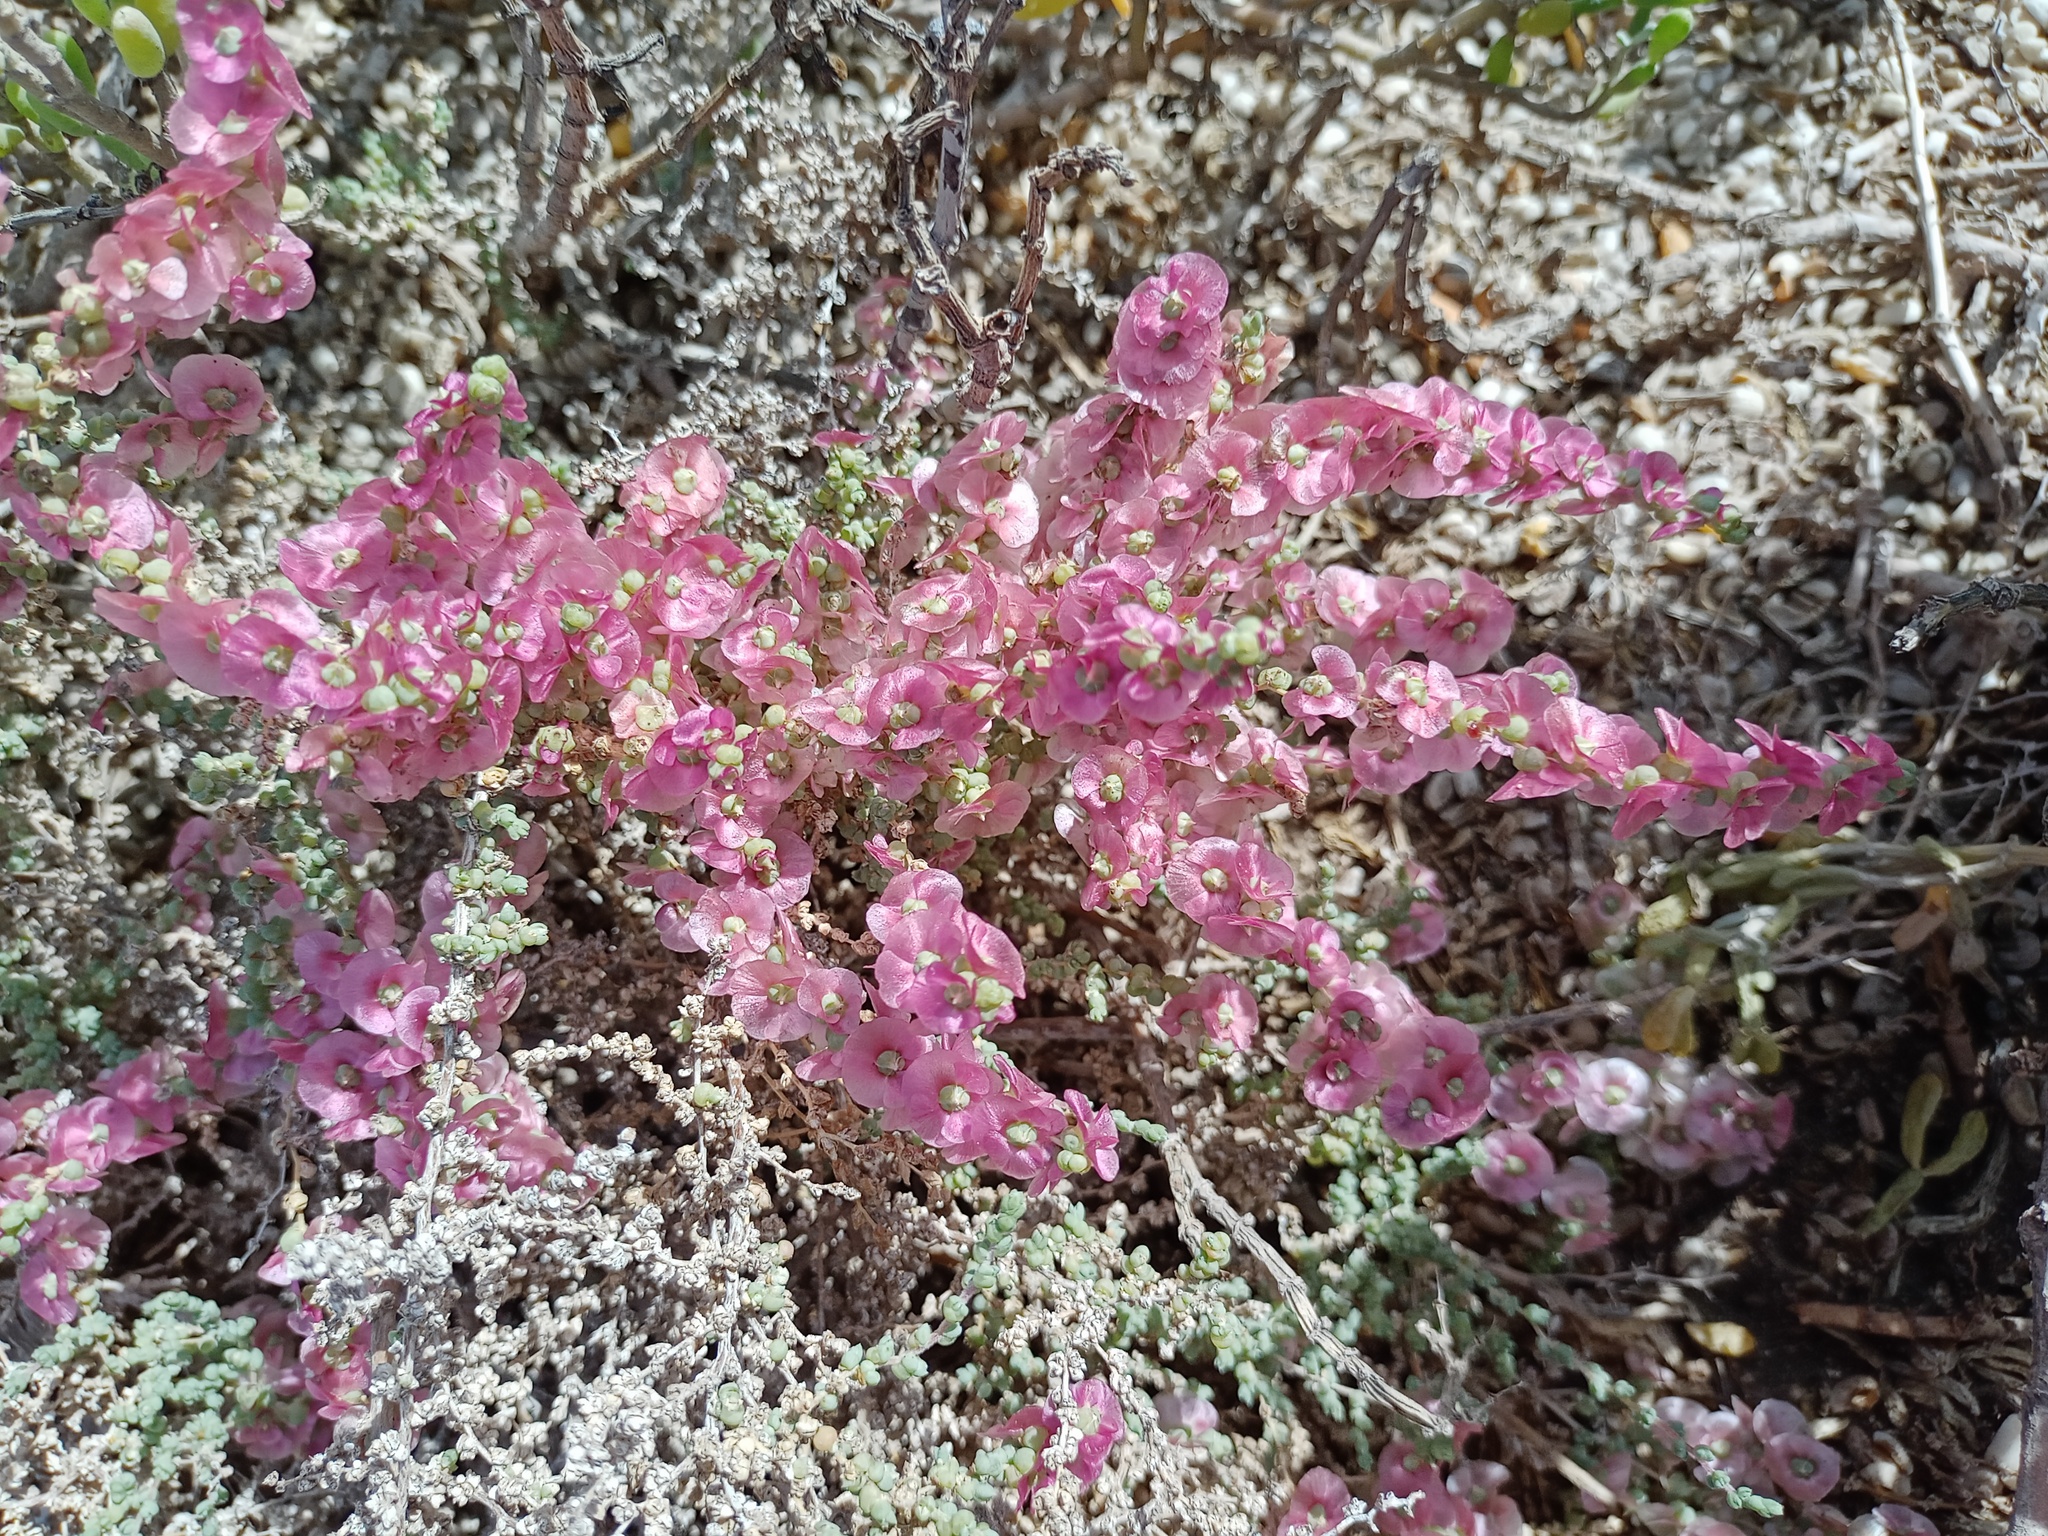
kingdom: Plantae
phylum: Tracheophyta
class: Magnoliopsida
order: Caryophyllales
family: Amaranthaceae
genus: Nitrosalsola
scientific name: Nitrosalsola vermiculata
